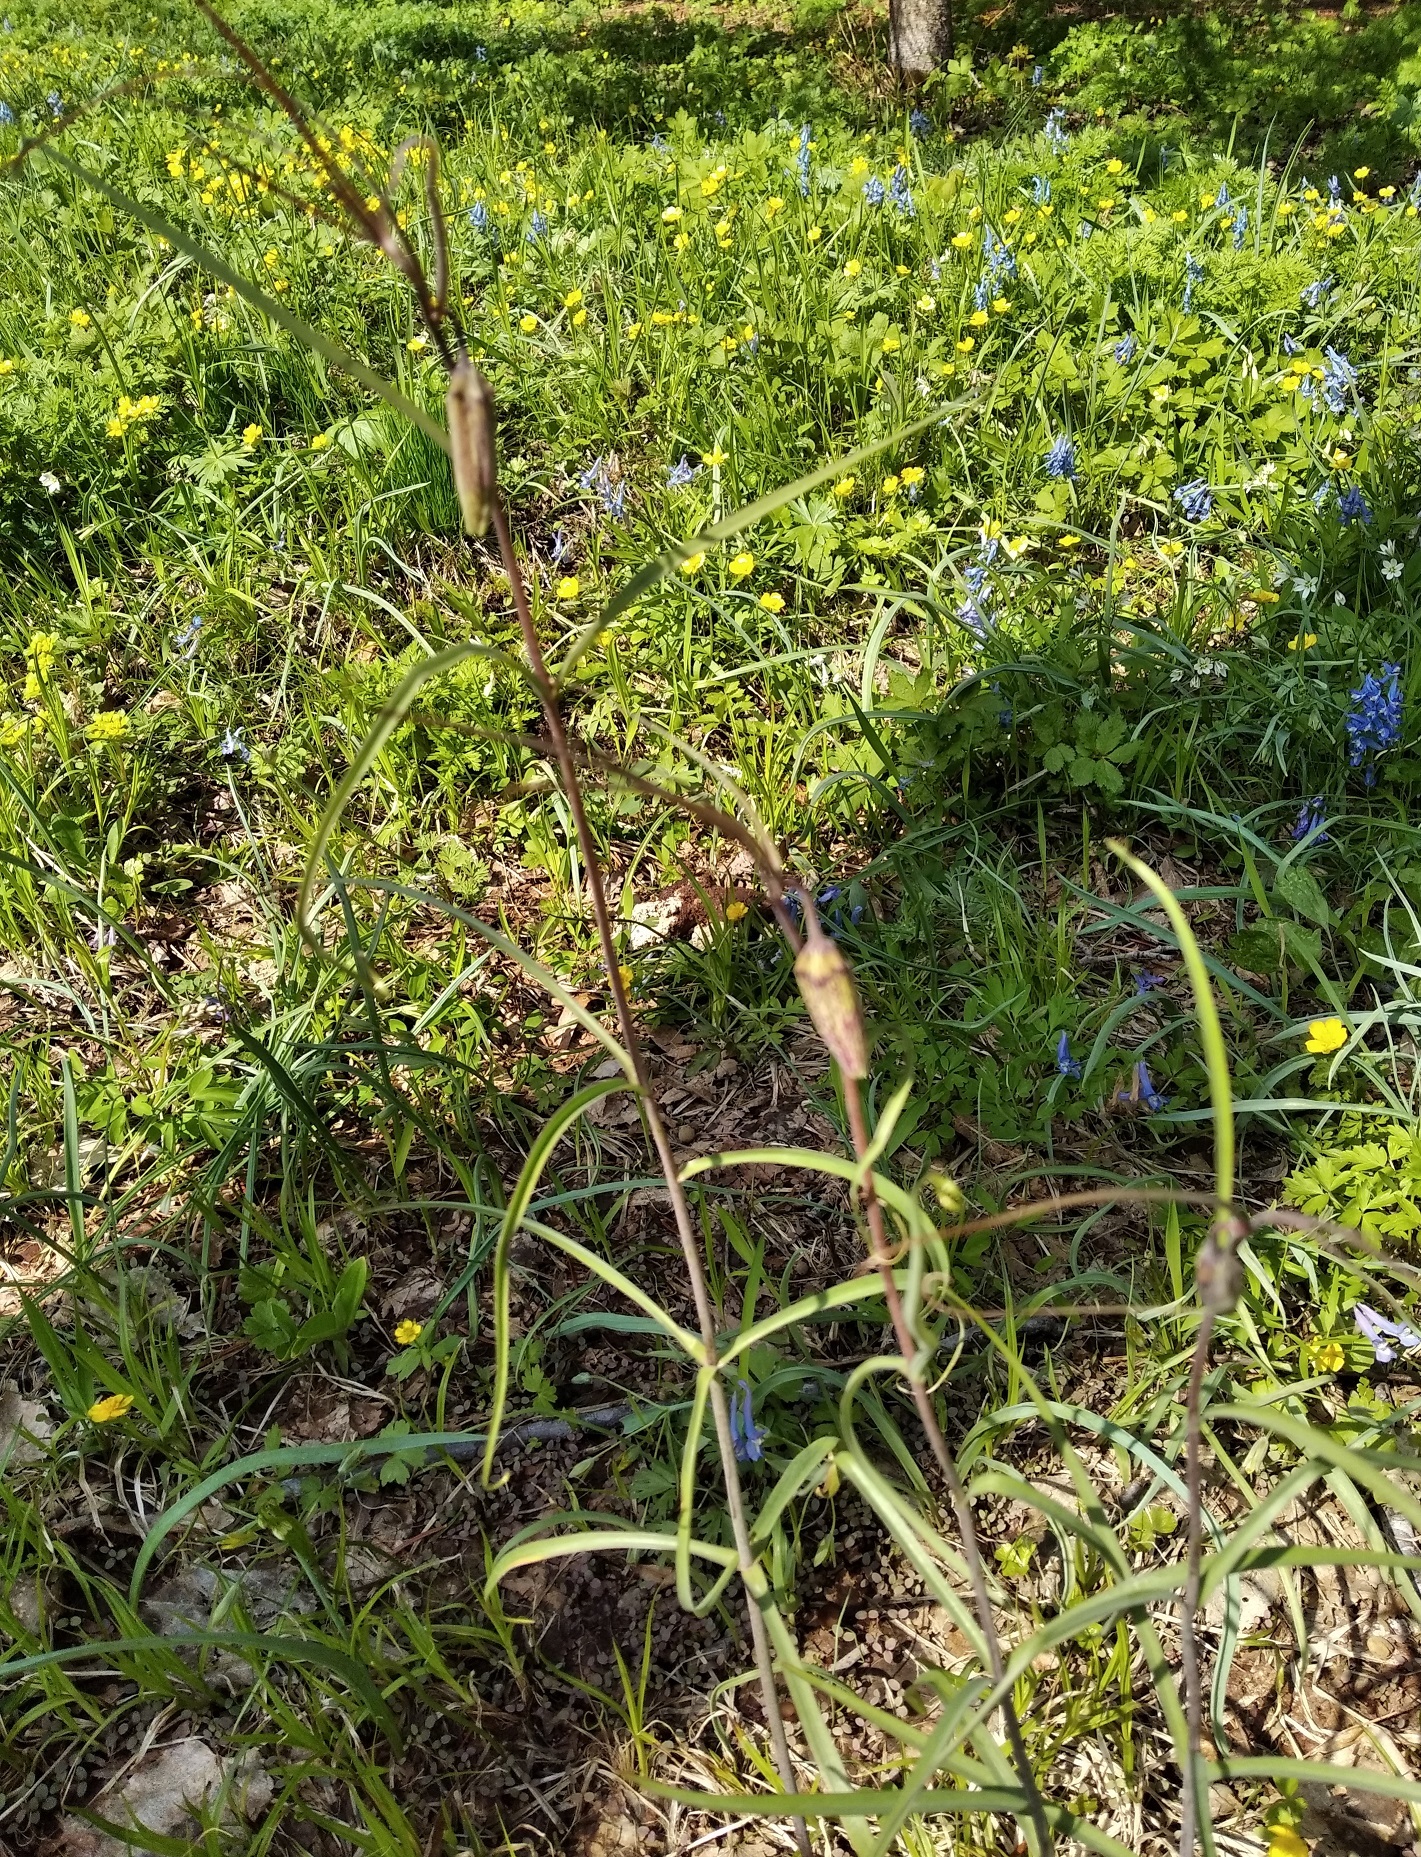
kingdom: Plantae
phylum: Tracheophyta
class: Liliopsida
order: Liliales
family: Liliaceae
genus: Fritillaria
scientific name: Fritillaria usuriensis
